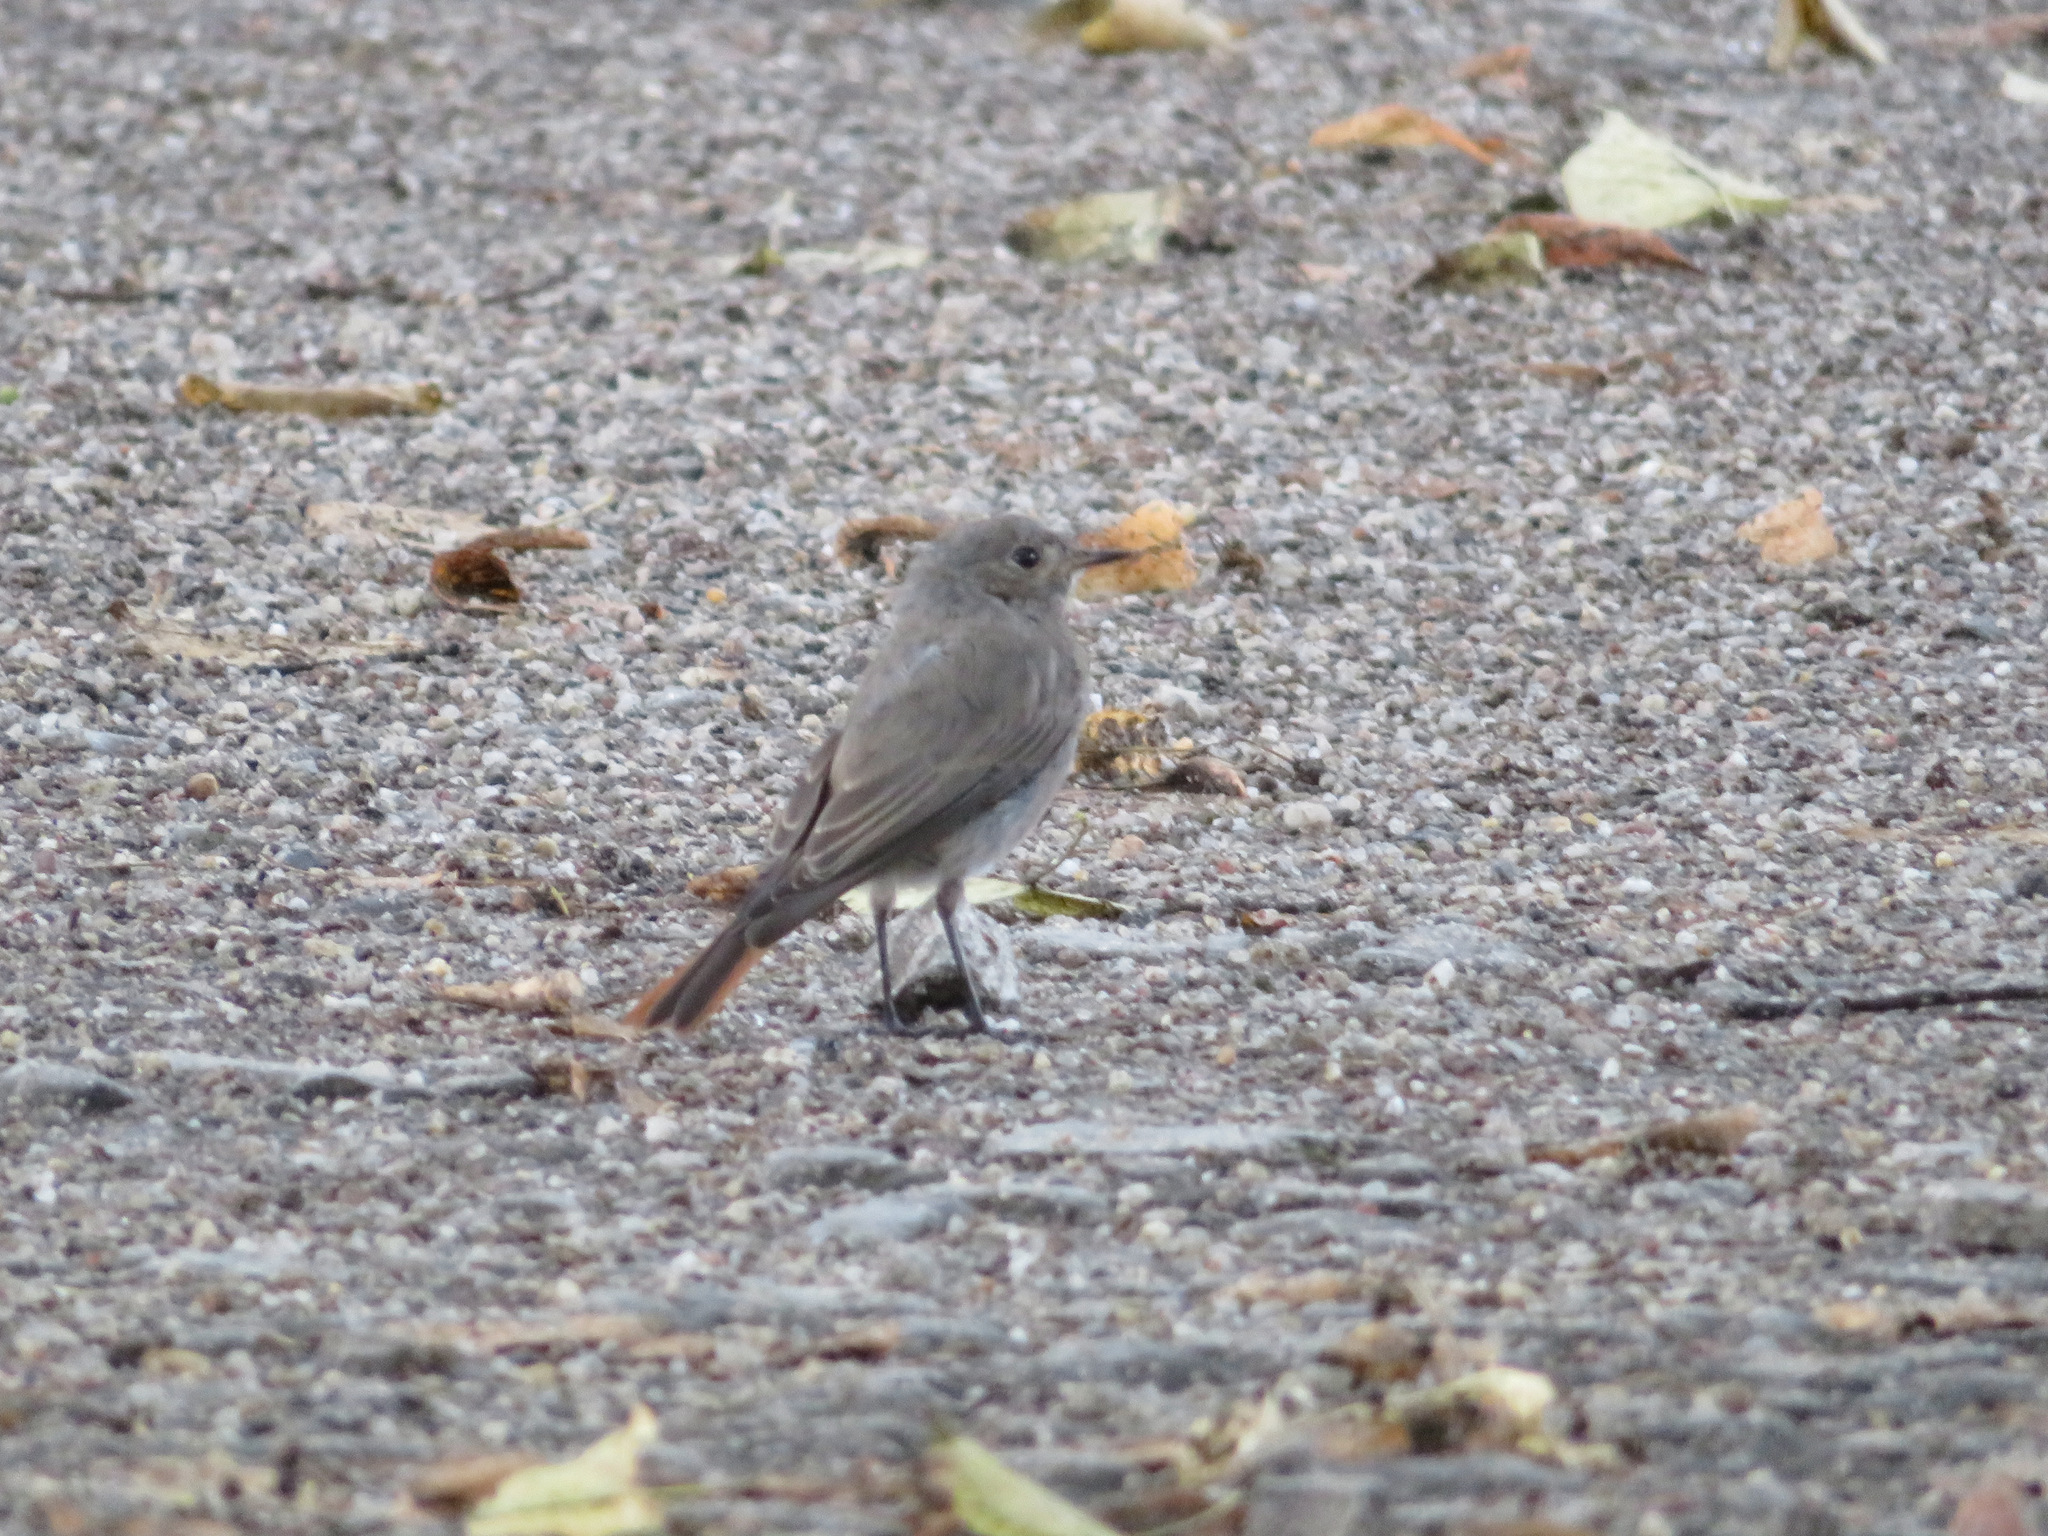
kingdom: Animalia
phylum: Chordata
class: Aves
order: Passeriformes
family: Muscicapidae
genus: Phoenicurus
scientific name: Phoenicurus ochruros
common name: Black redstart
